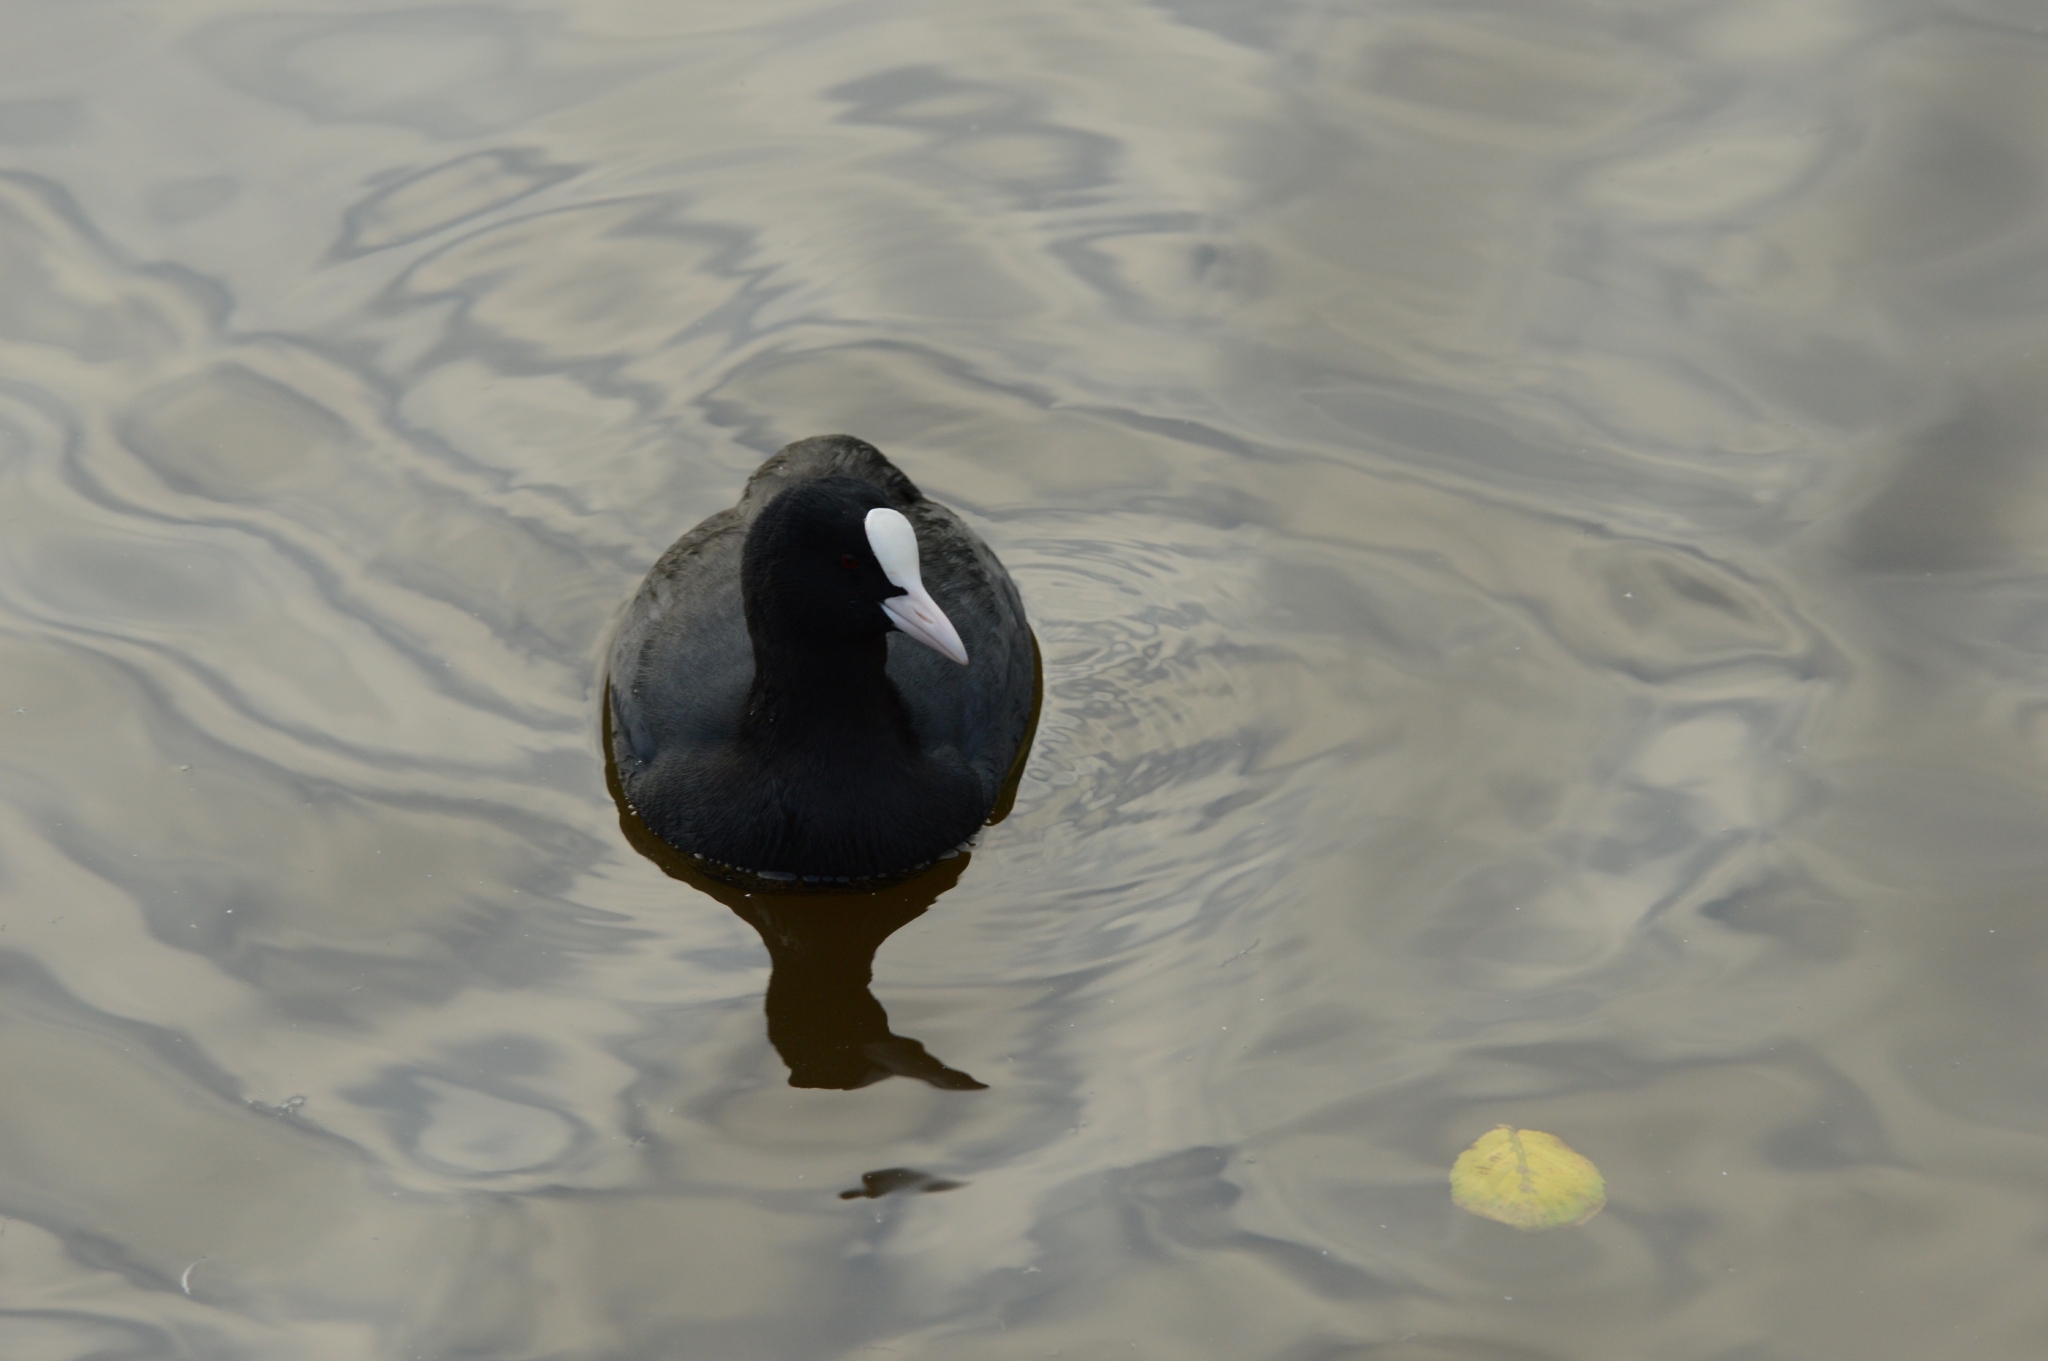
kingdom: Animalia
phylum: Chordata
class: Aves
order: Gruiformes
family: Rallidae
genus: Fulica
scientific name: Fulica atra
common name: Eurasian coot
